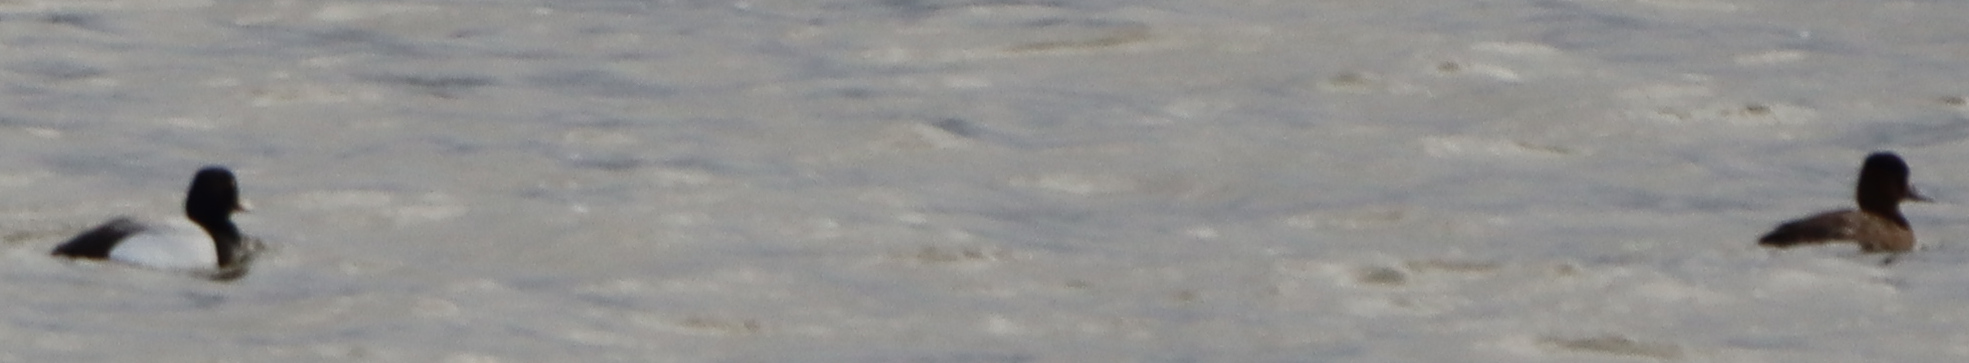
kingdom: Animalia
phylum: Chordata
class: Aves
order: Anseriformes
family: Anatidae
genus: Aythya
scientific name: Aythya affinis
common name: Lesser scaup
